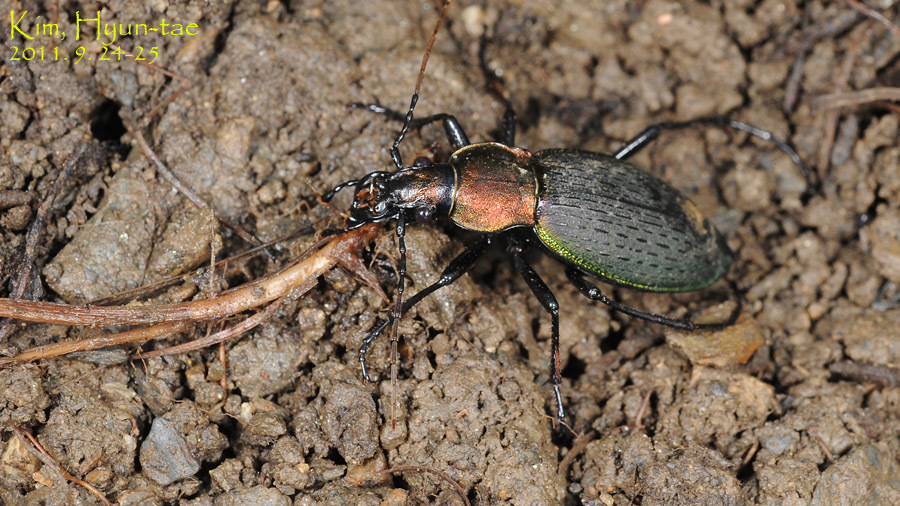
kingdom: Animalia
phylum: Arthropoda
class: Insecta
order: Coleoptera
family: Carabidae
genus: Carabus
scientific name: Carabus jankowskii
